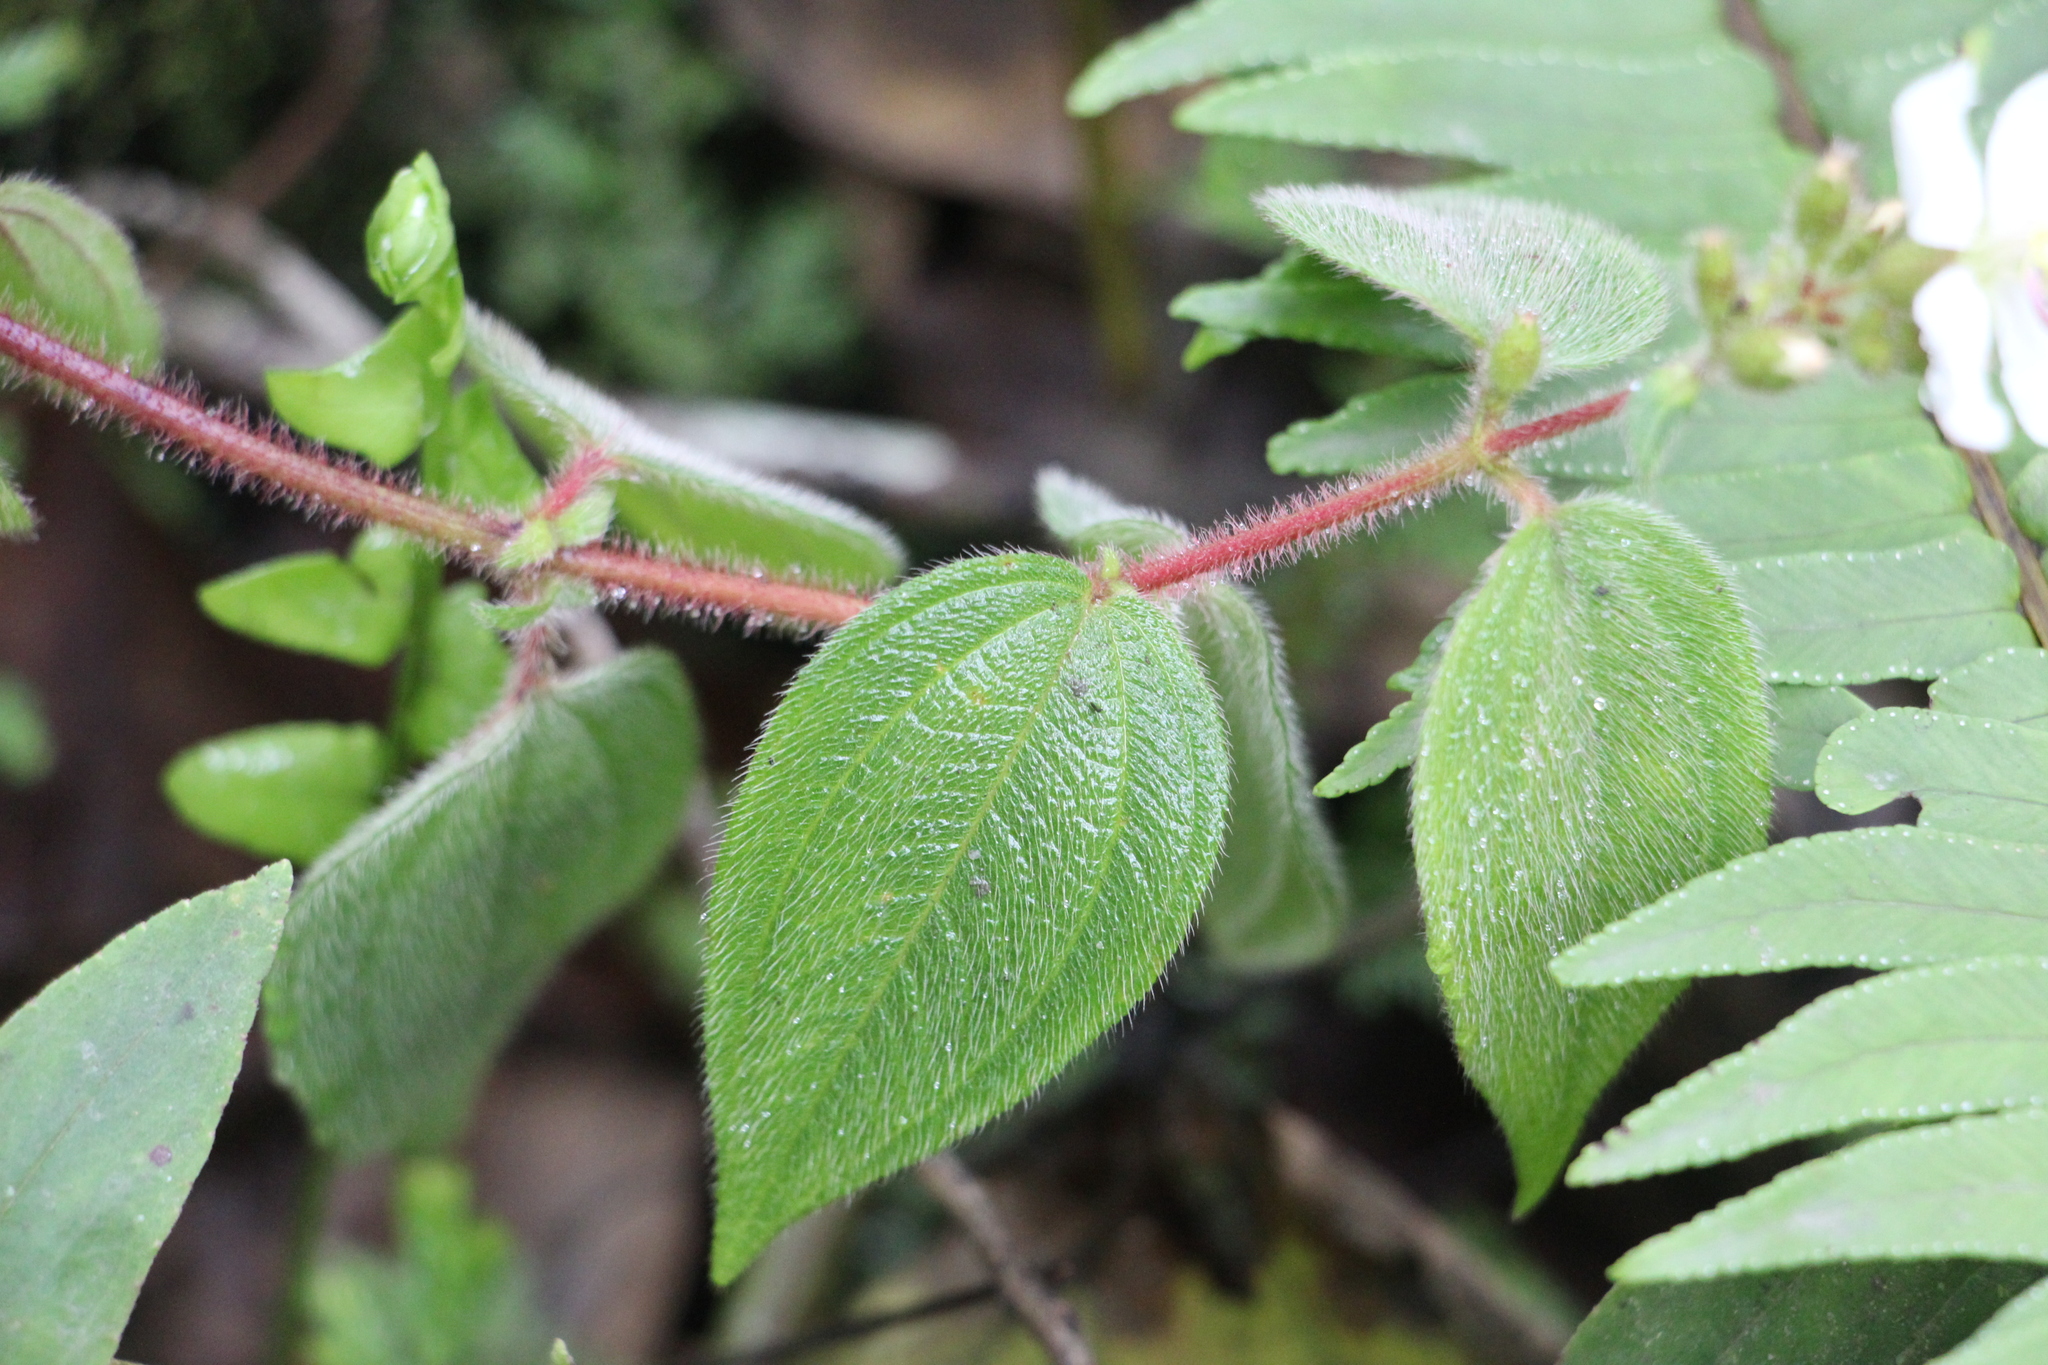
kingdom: Plantae
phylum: Tracheophyta
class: Magnoliopsida
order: Myrtales
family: Melastomataceae
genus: Chaetogastra
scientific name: Chaetogastra ciliaris
